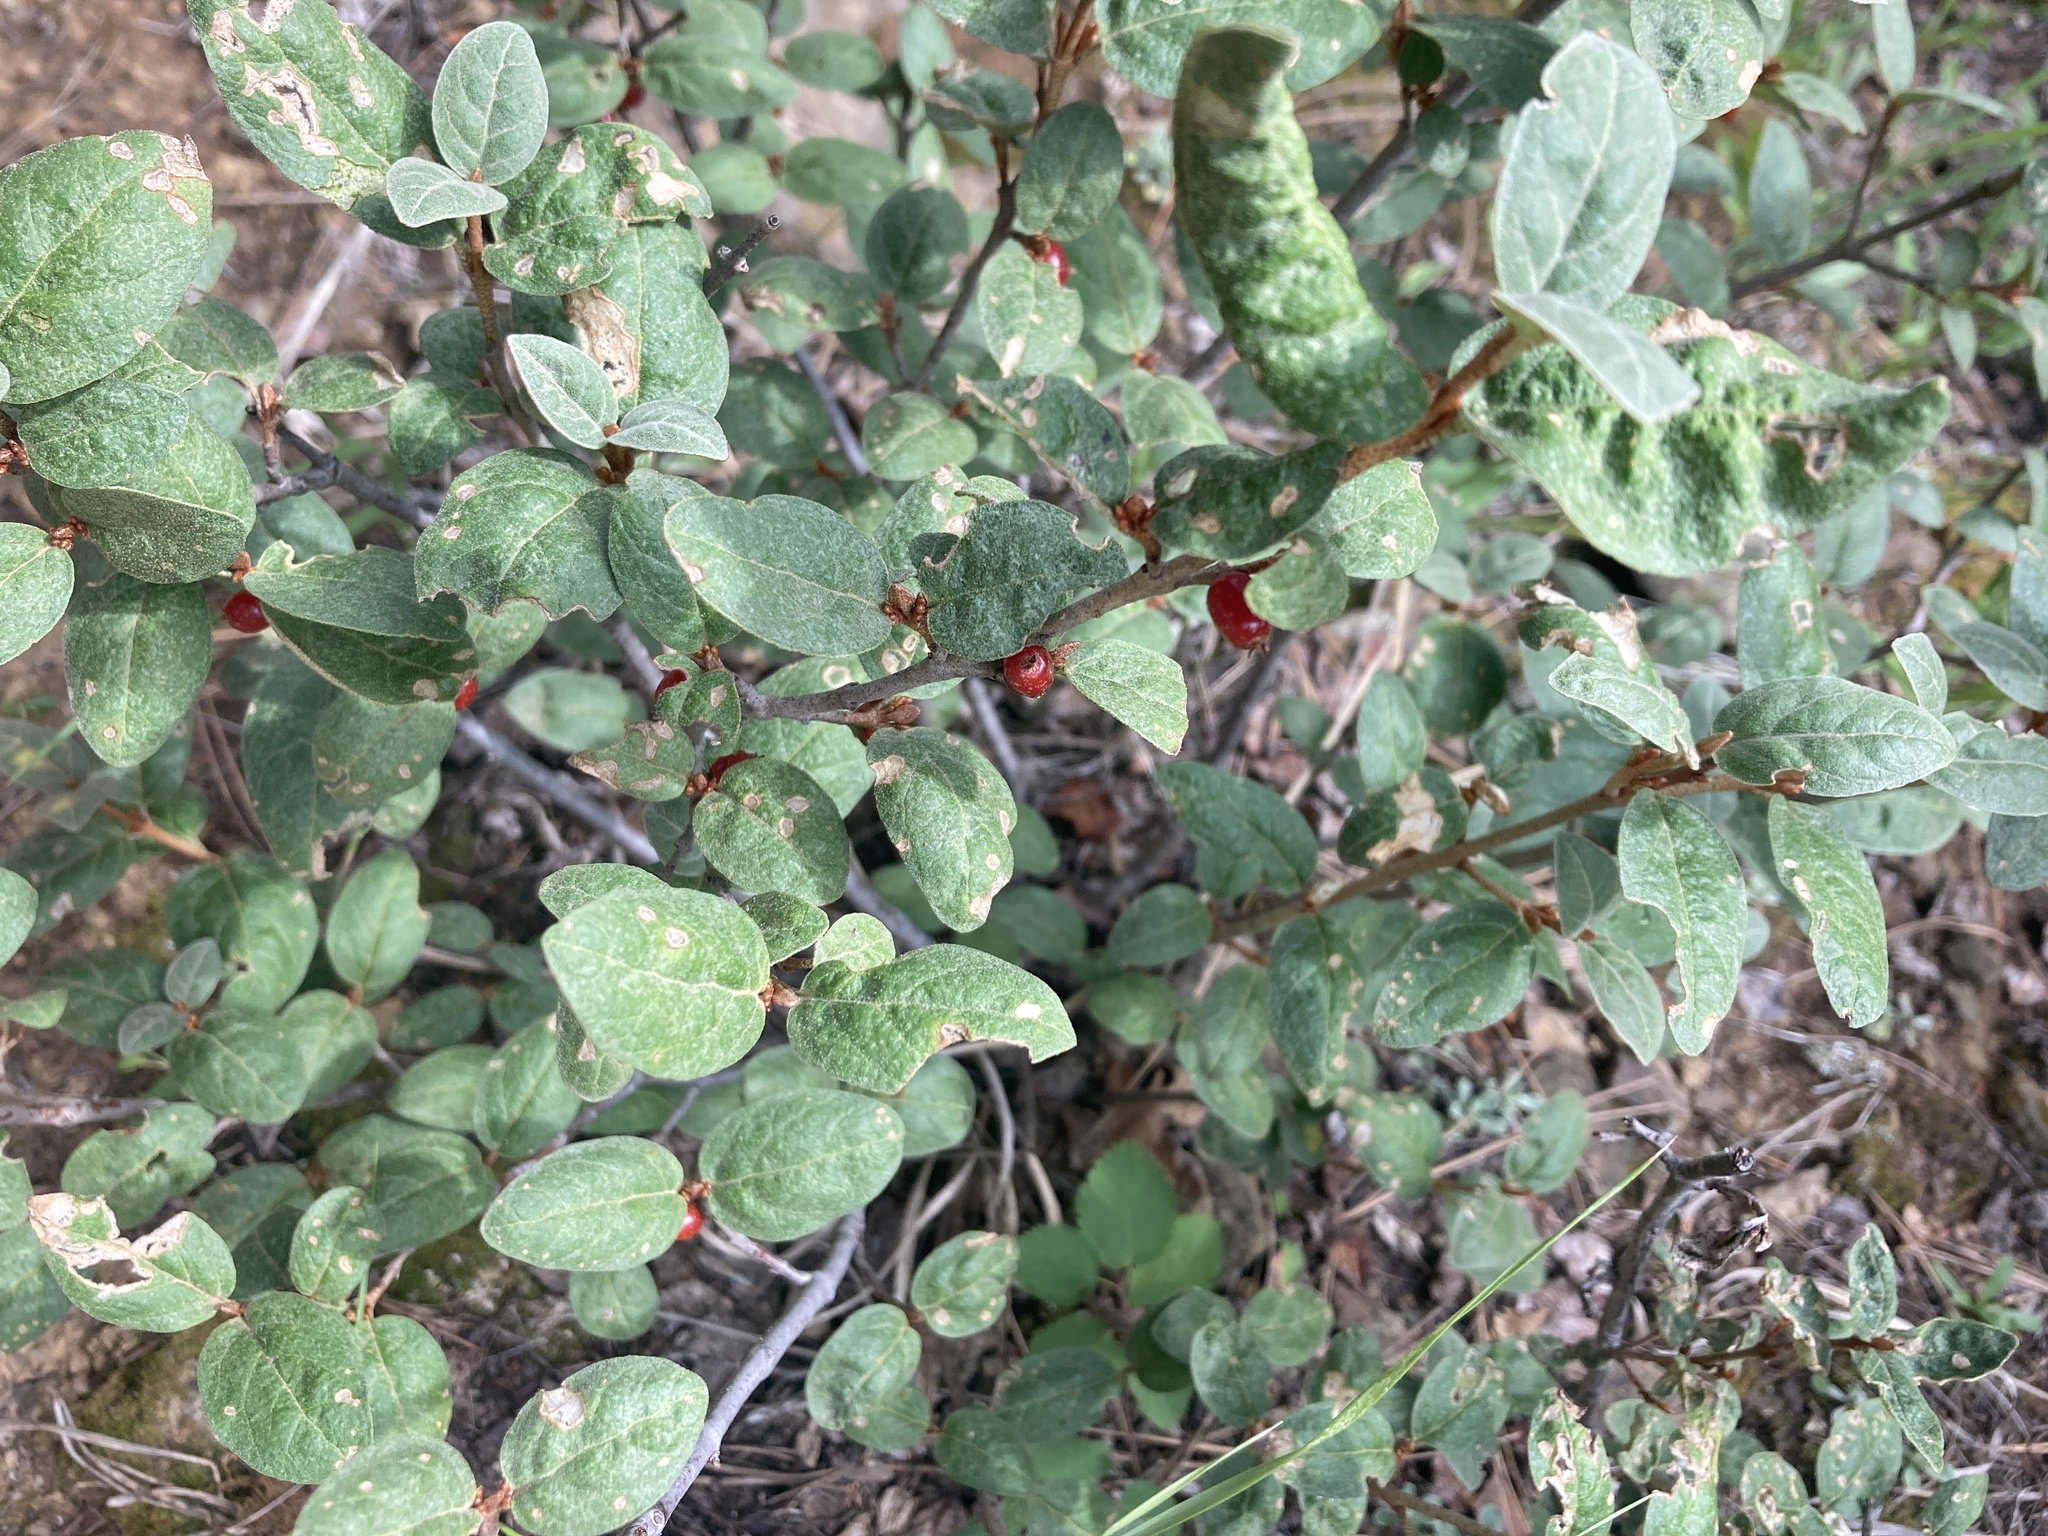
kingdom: Plantae
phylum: Tracheophyta
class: Magnoliopsida
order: Rosales
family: Elaeagnaceae
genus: Shepherdia
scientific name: Shepherdia canadensis
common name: Soapberry
